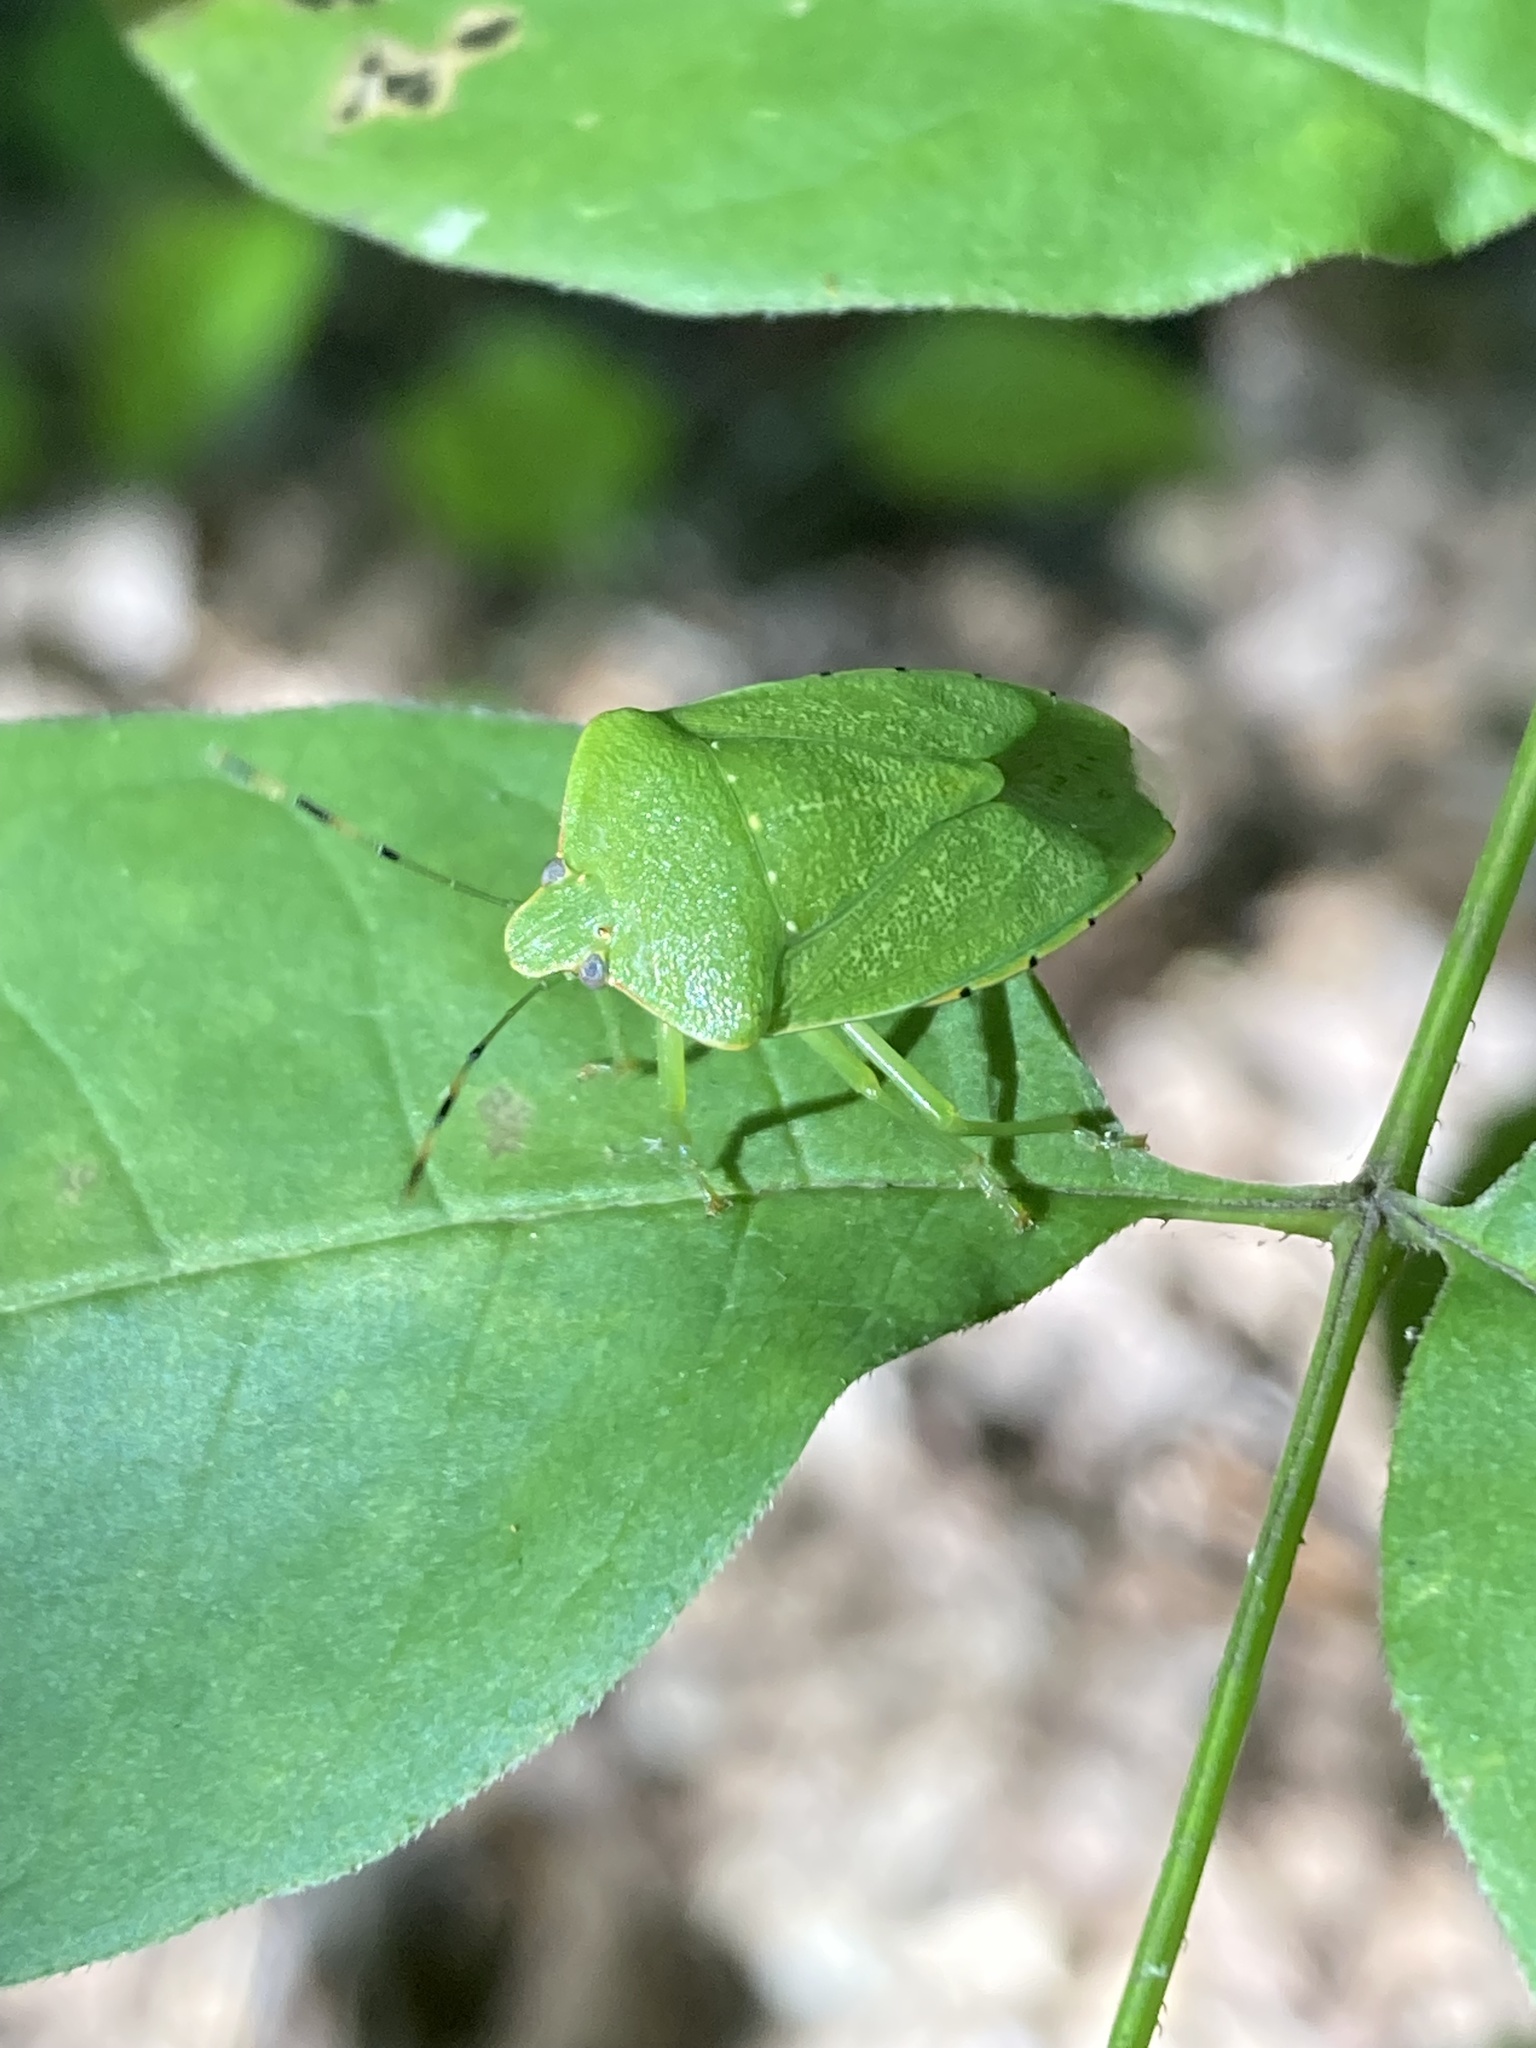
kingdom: Animalia
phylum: Arthropoda
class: Insecta
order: Hemiptera
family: Pentatomidae
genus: Chinavia
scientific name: Chinavia hilaris
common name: Green stink bug
